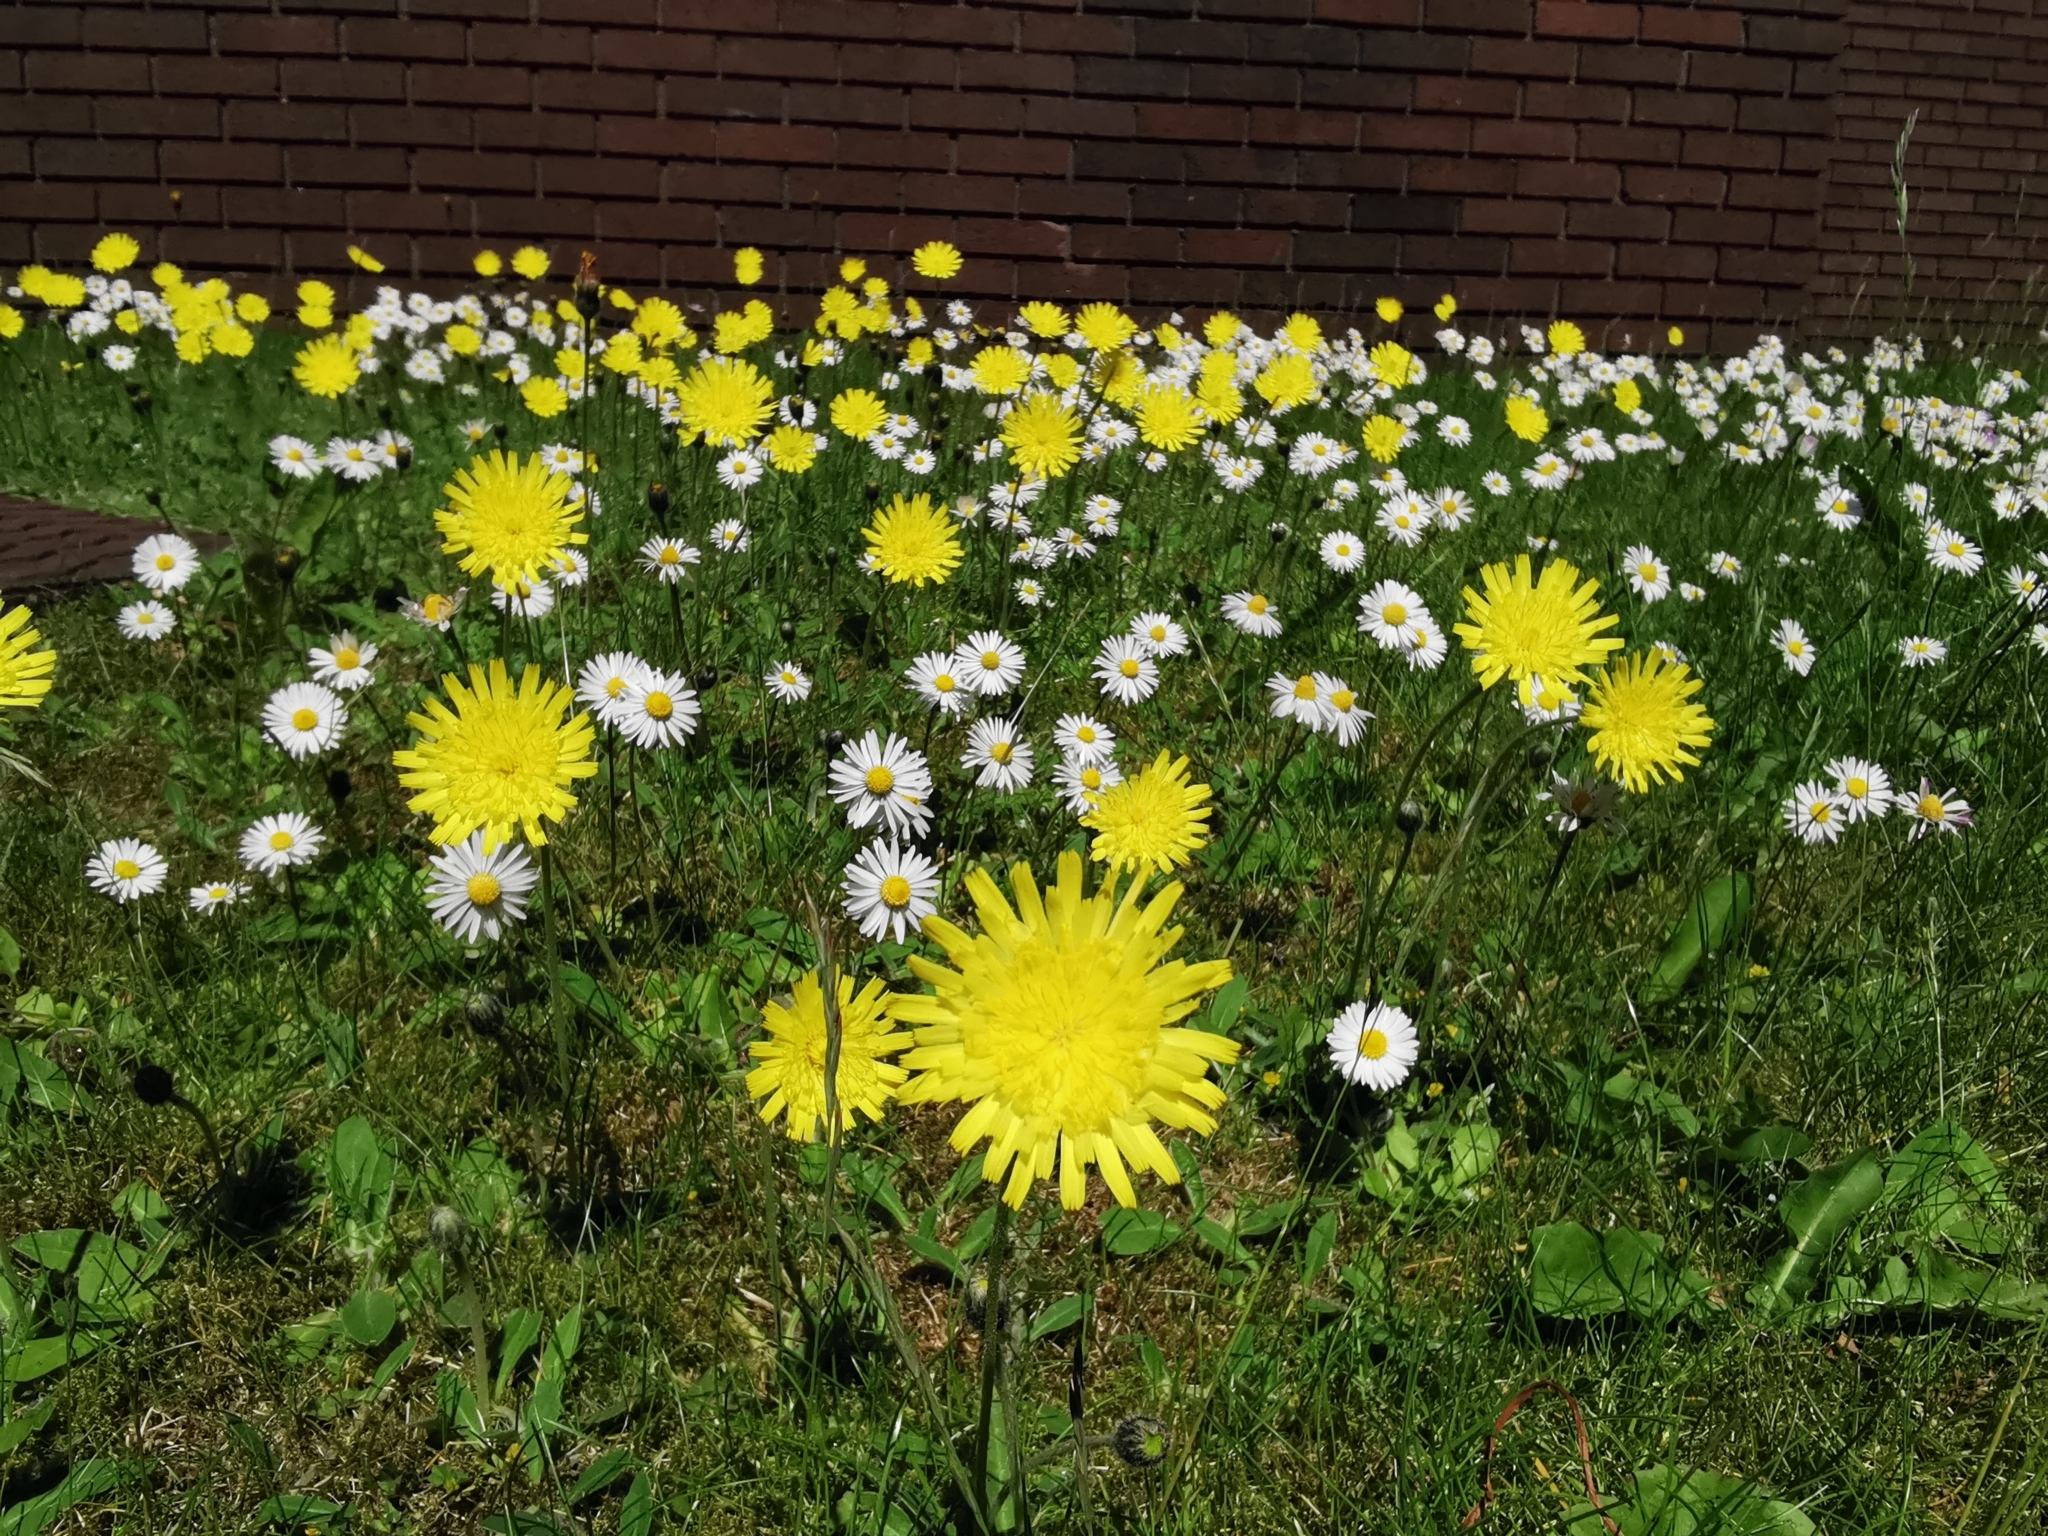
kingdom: Plantae
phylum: Tracheophyta
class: Magnoliopsida
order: Asterales
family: Asteraceae
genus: Pilosella
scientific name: Pilosella officinarum
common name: Mouse-ear hawkweed
